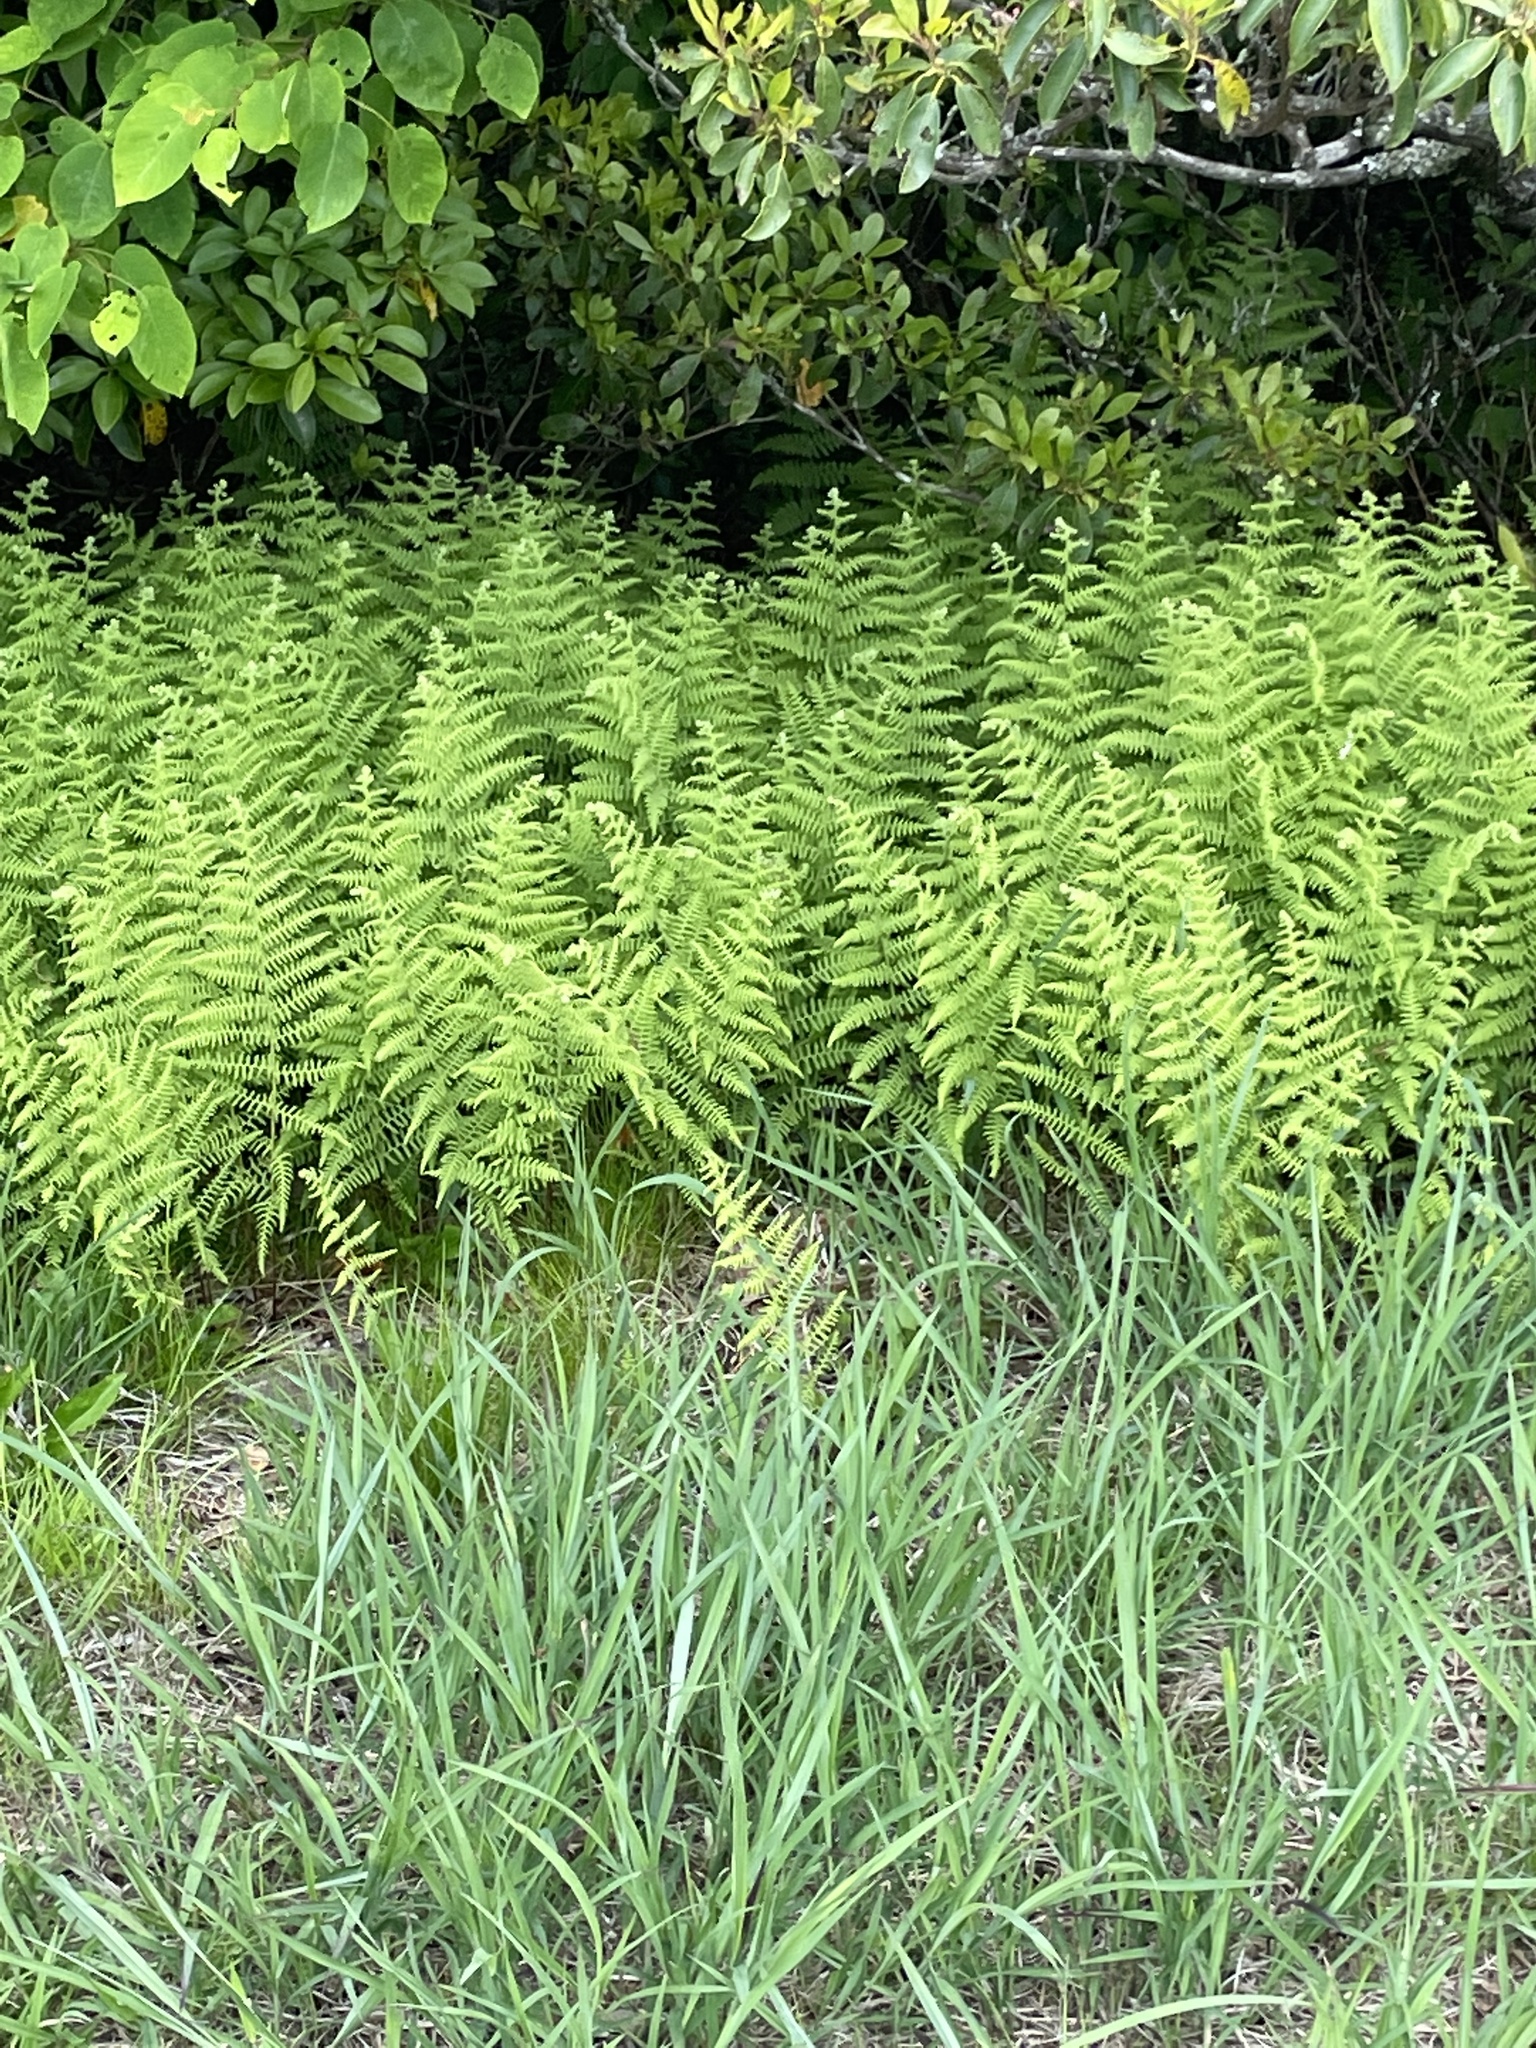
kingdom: Plantae
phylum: Tracheophyta
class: Polypodiopsida
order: Polypodiales
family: Dennstaedtiaceae
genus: Sitobolium
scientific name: Sitobolium punctilobum
